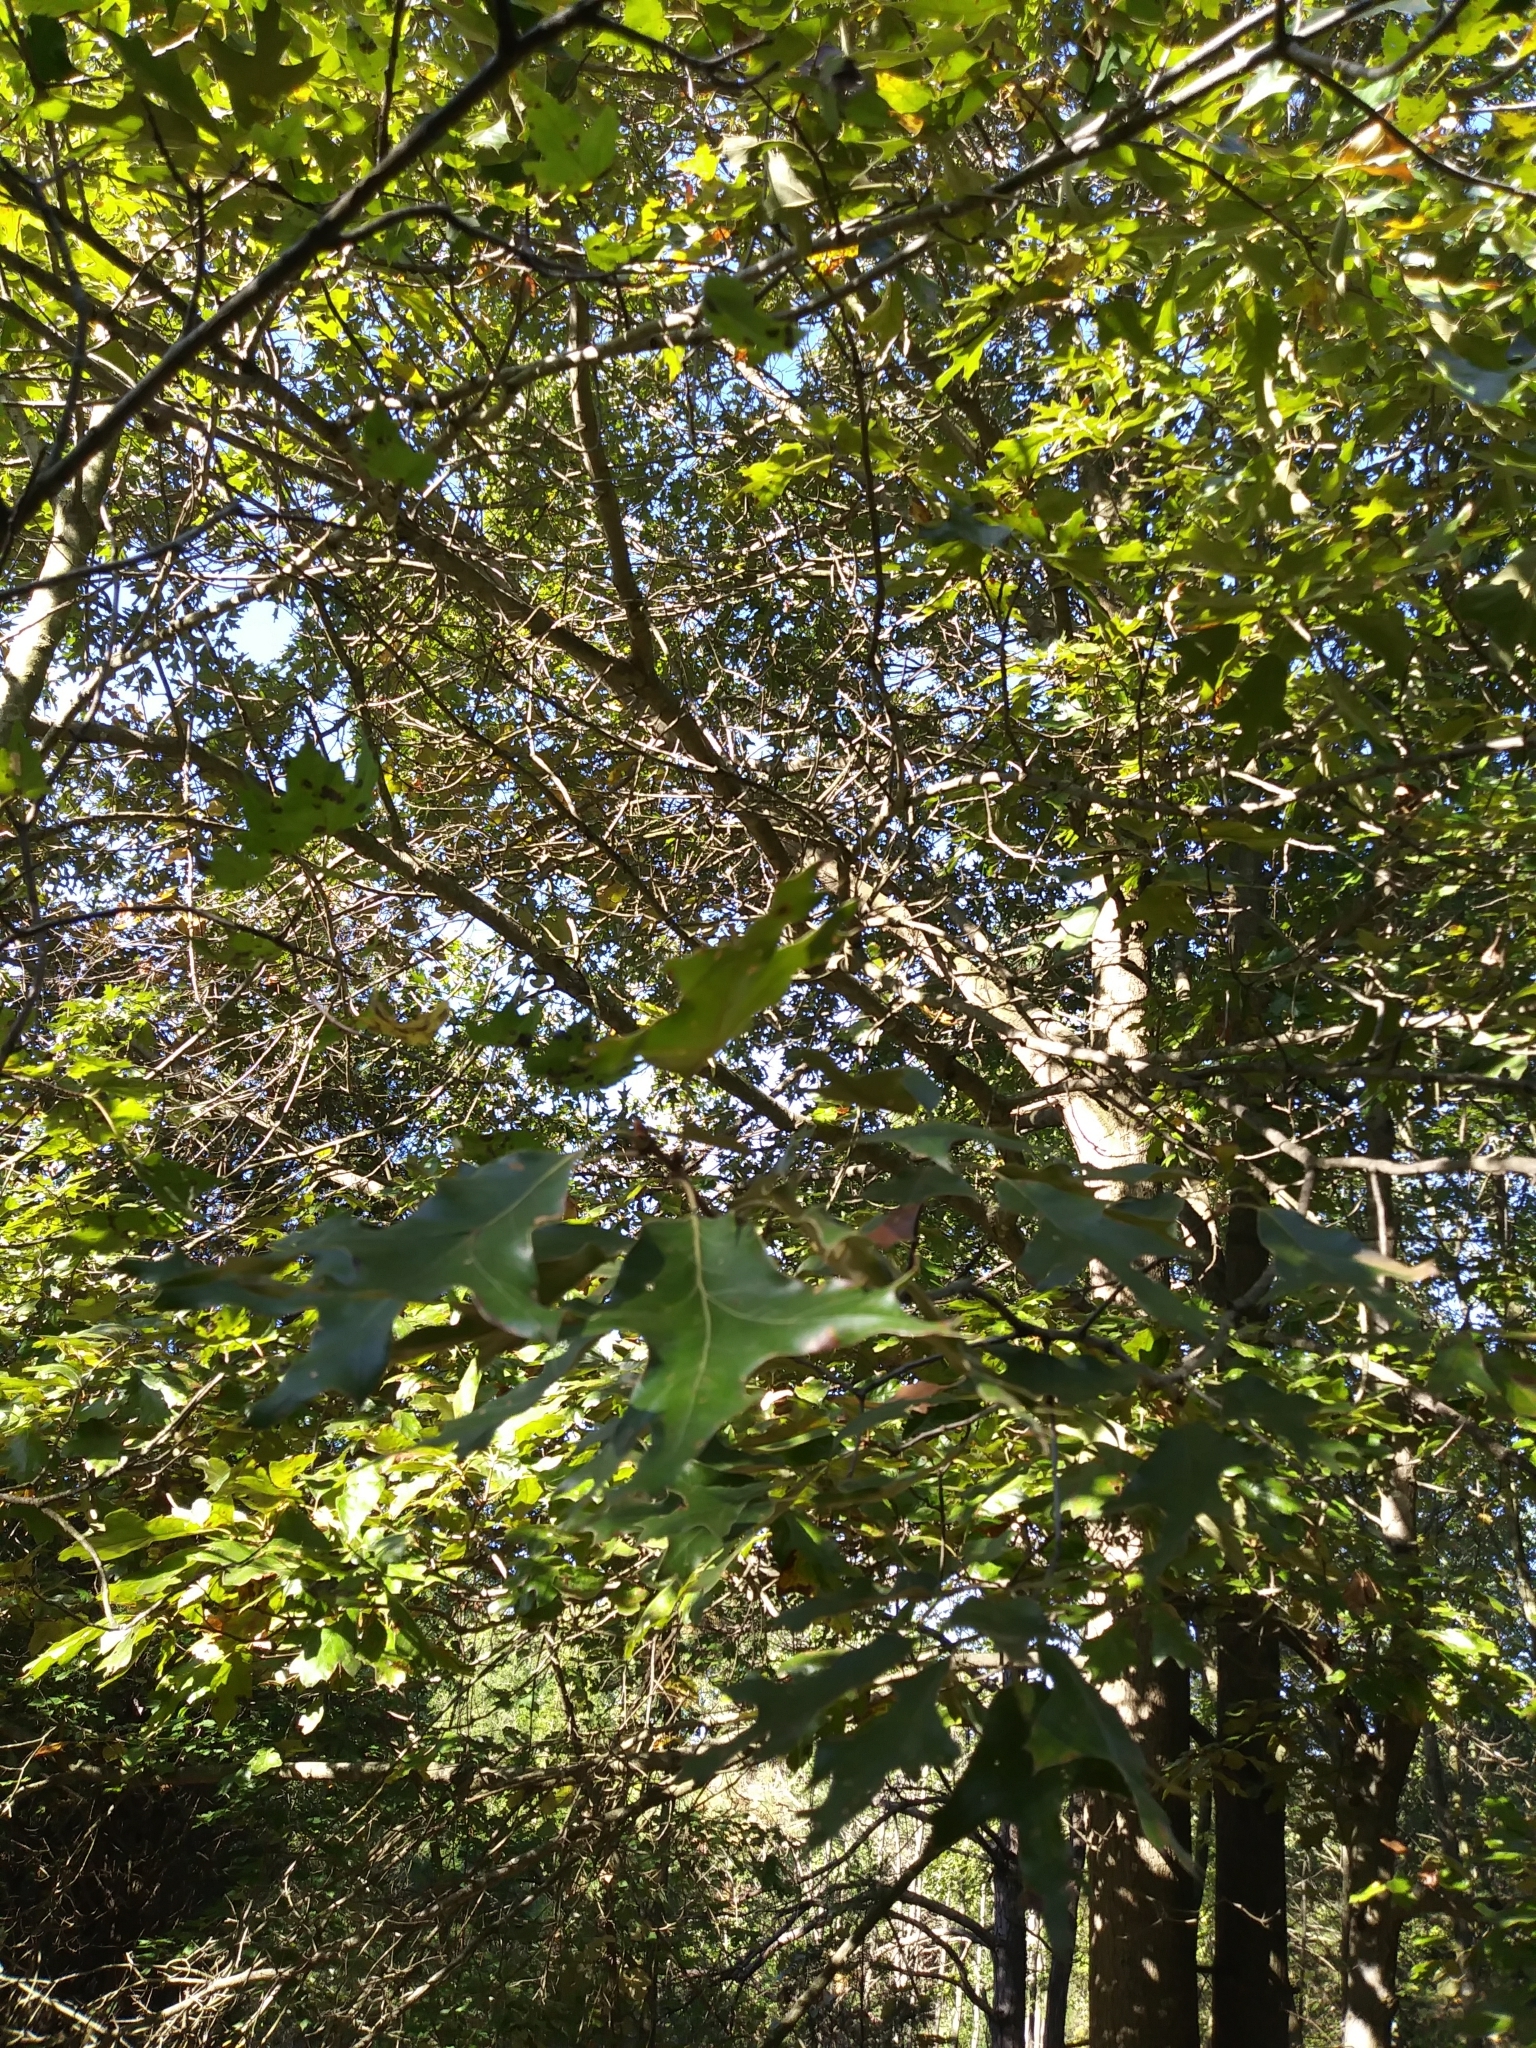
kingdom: Plantae
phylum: Tracheophyta
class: Magnoliopsida
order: Fagales
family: Fagaceae
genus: Quercus
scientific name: Quercus falcata
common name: Southern red oak
